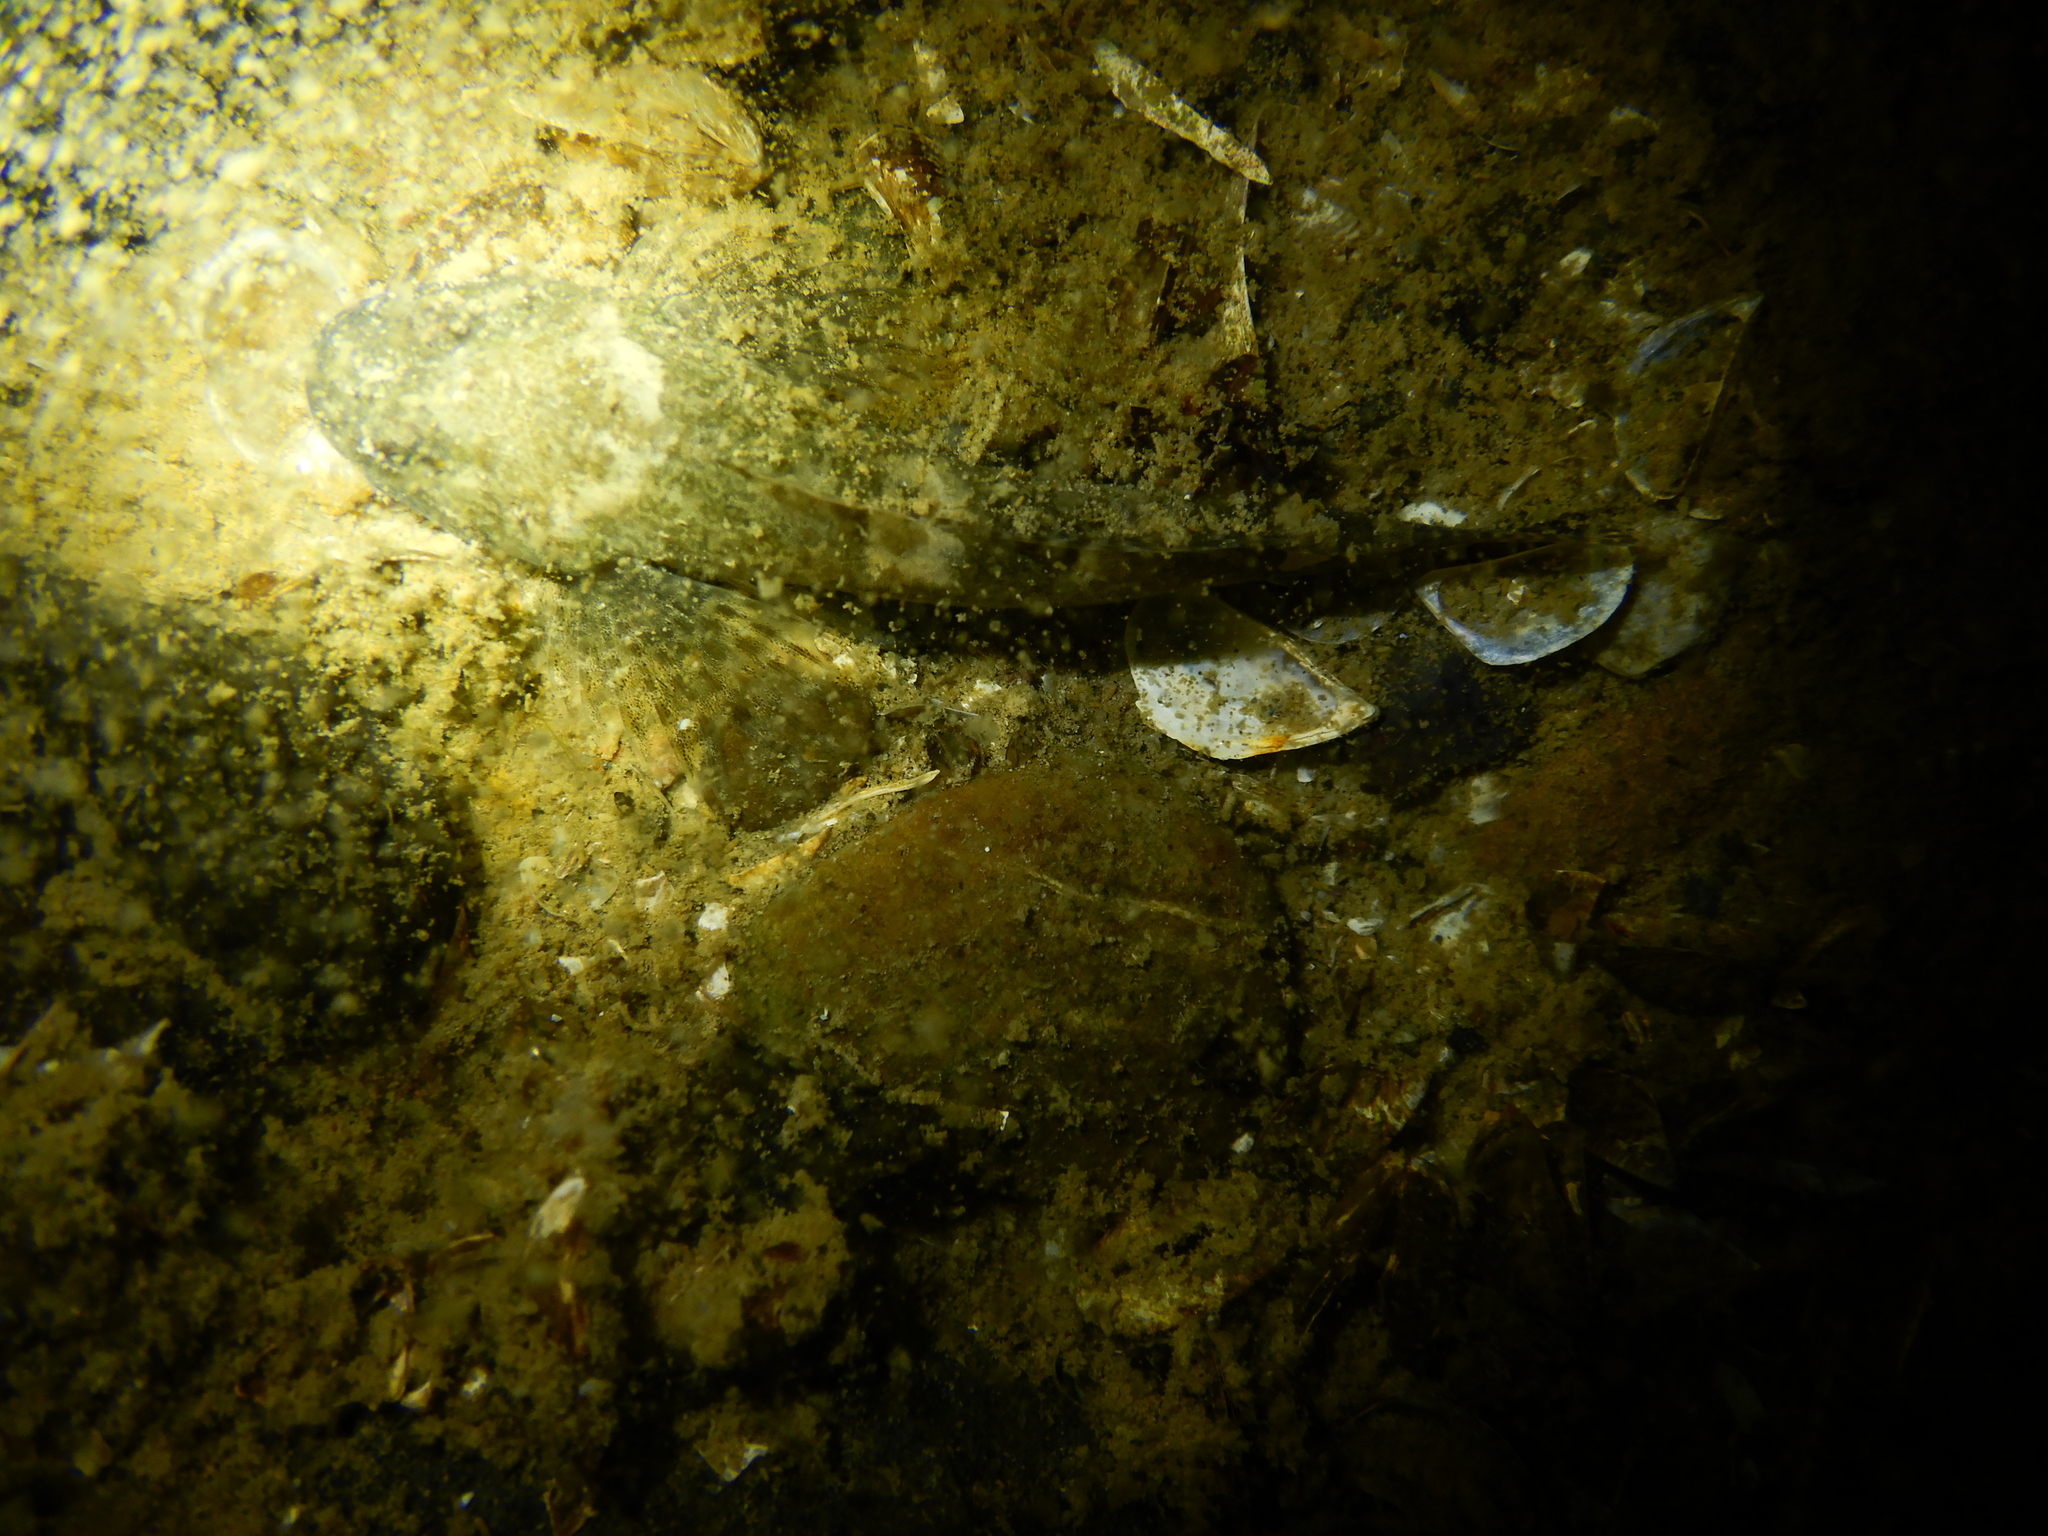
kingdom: Animalia
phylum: Chordata
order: Scorpaeniformes
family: Cottidae
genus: Cottus
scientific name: Cottus gobio
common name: Bullhead
